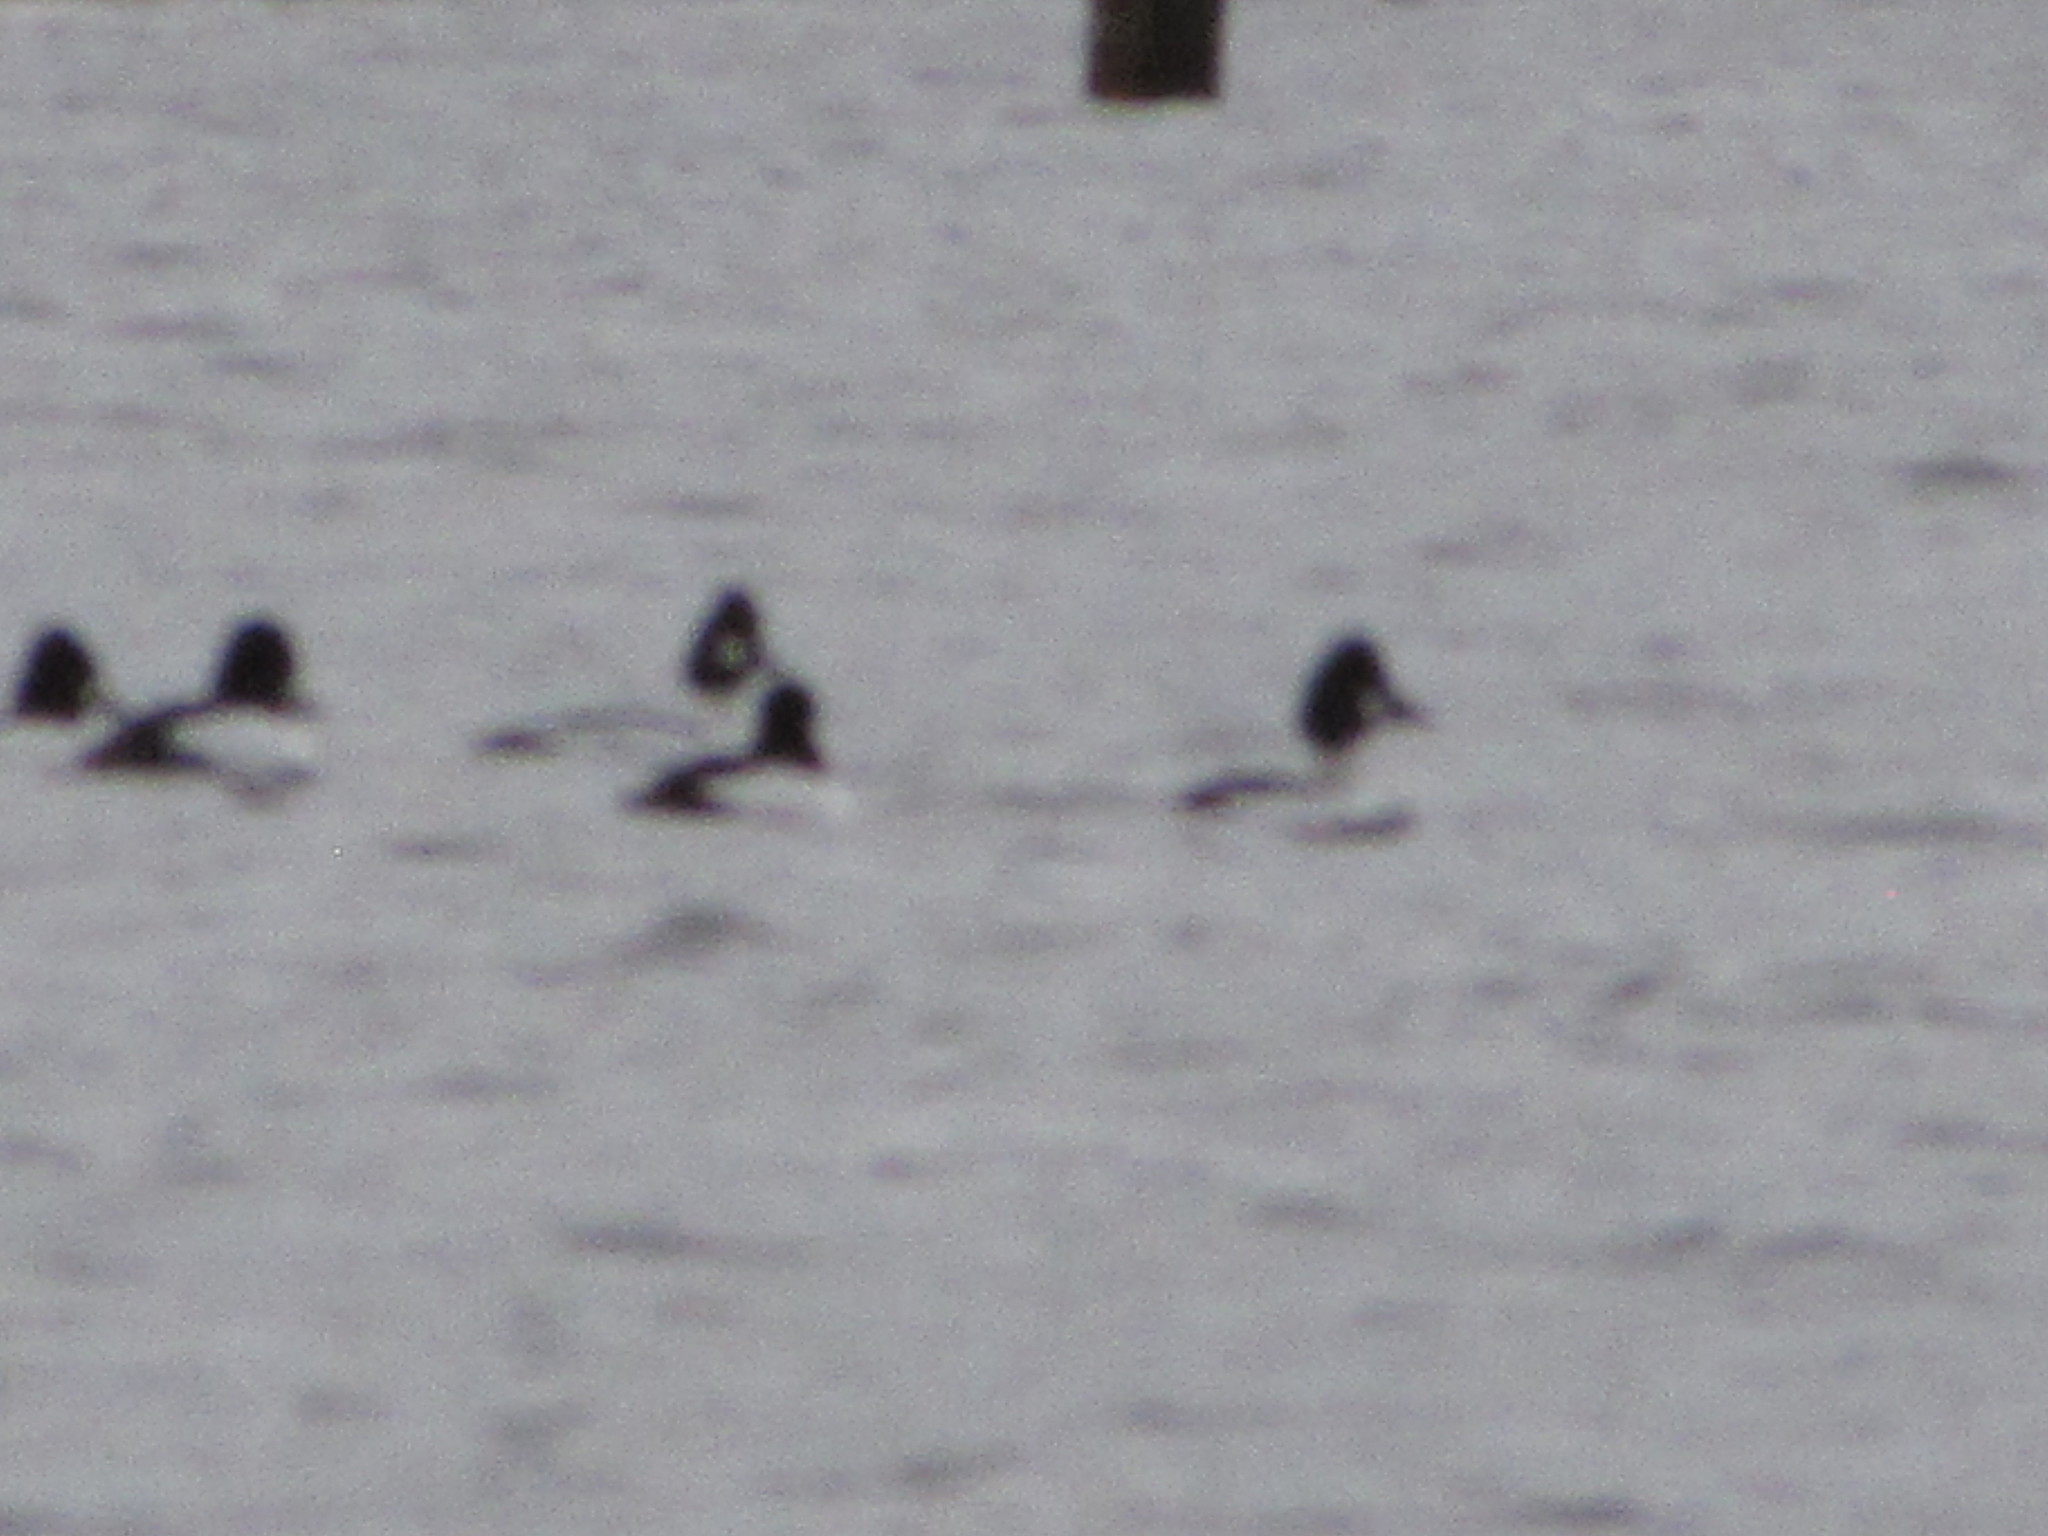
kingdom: Animalia
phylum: Chordata
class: Aves
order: Anseriformes
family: Anatidae
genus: Bucephala
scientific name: Bucephala clangula
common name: Common goldeneye
